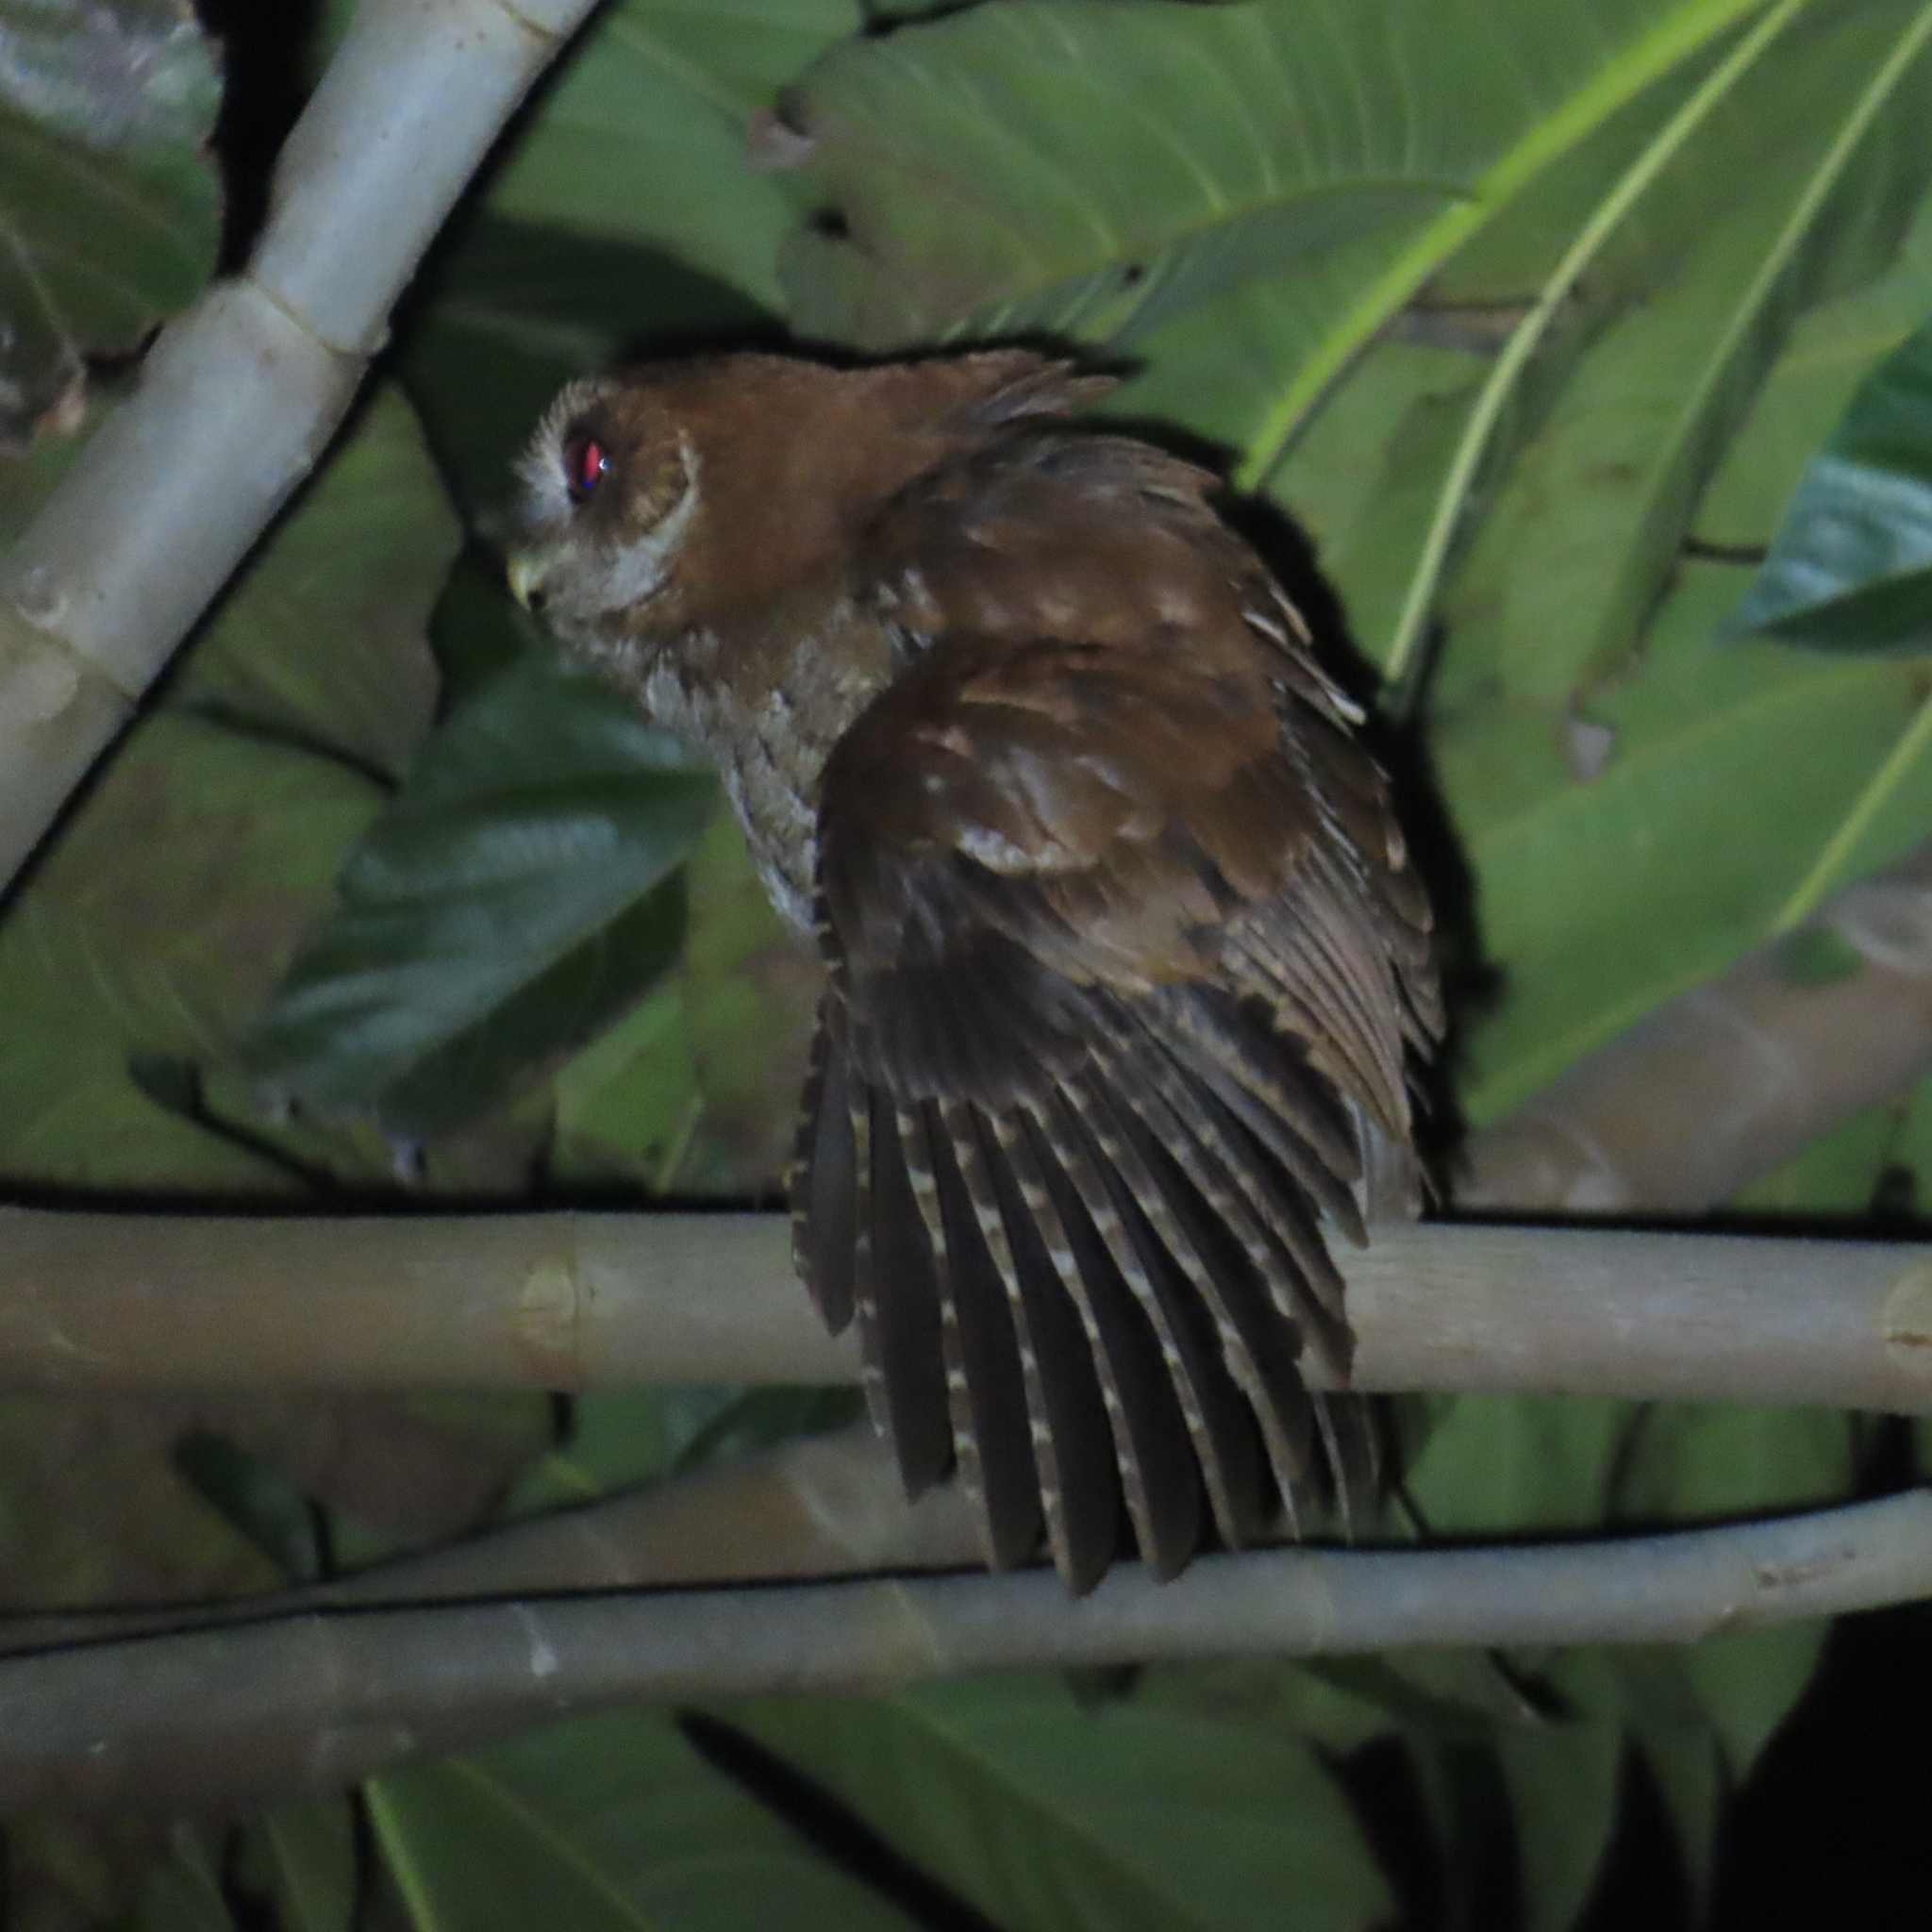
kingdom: Animalia
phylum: Chordata
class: Aves
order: Strigiformes
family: Strigidae
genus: Megascops
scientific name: Megascops nudipes
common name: Puerto rican screech-owl
